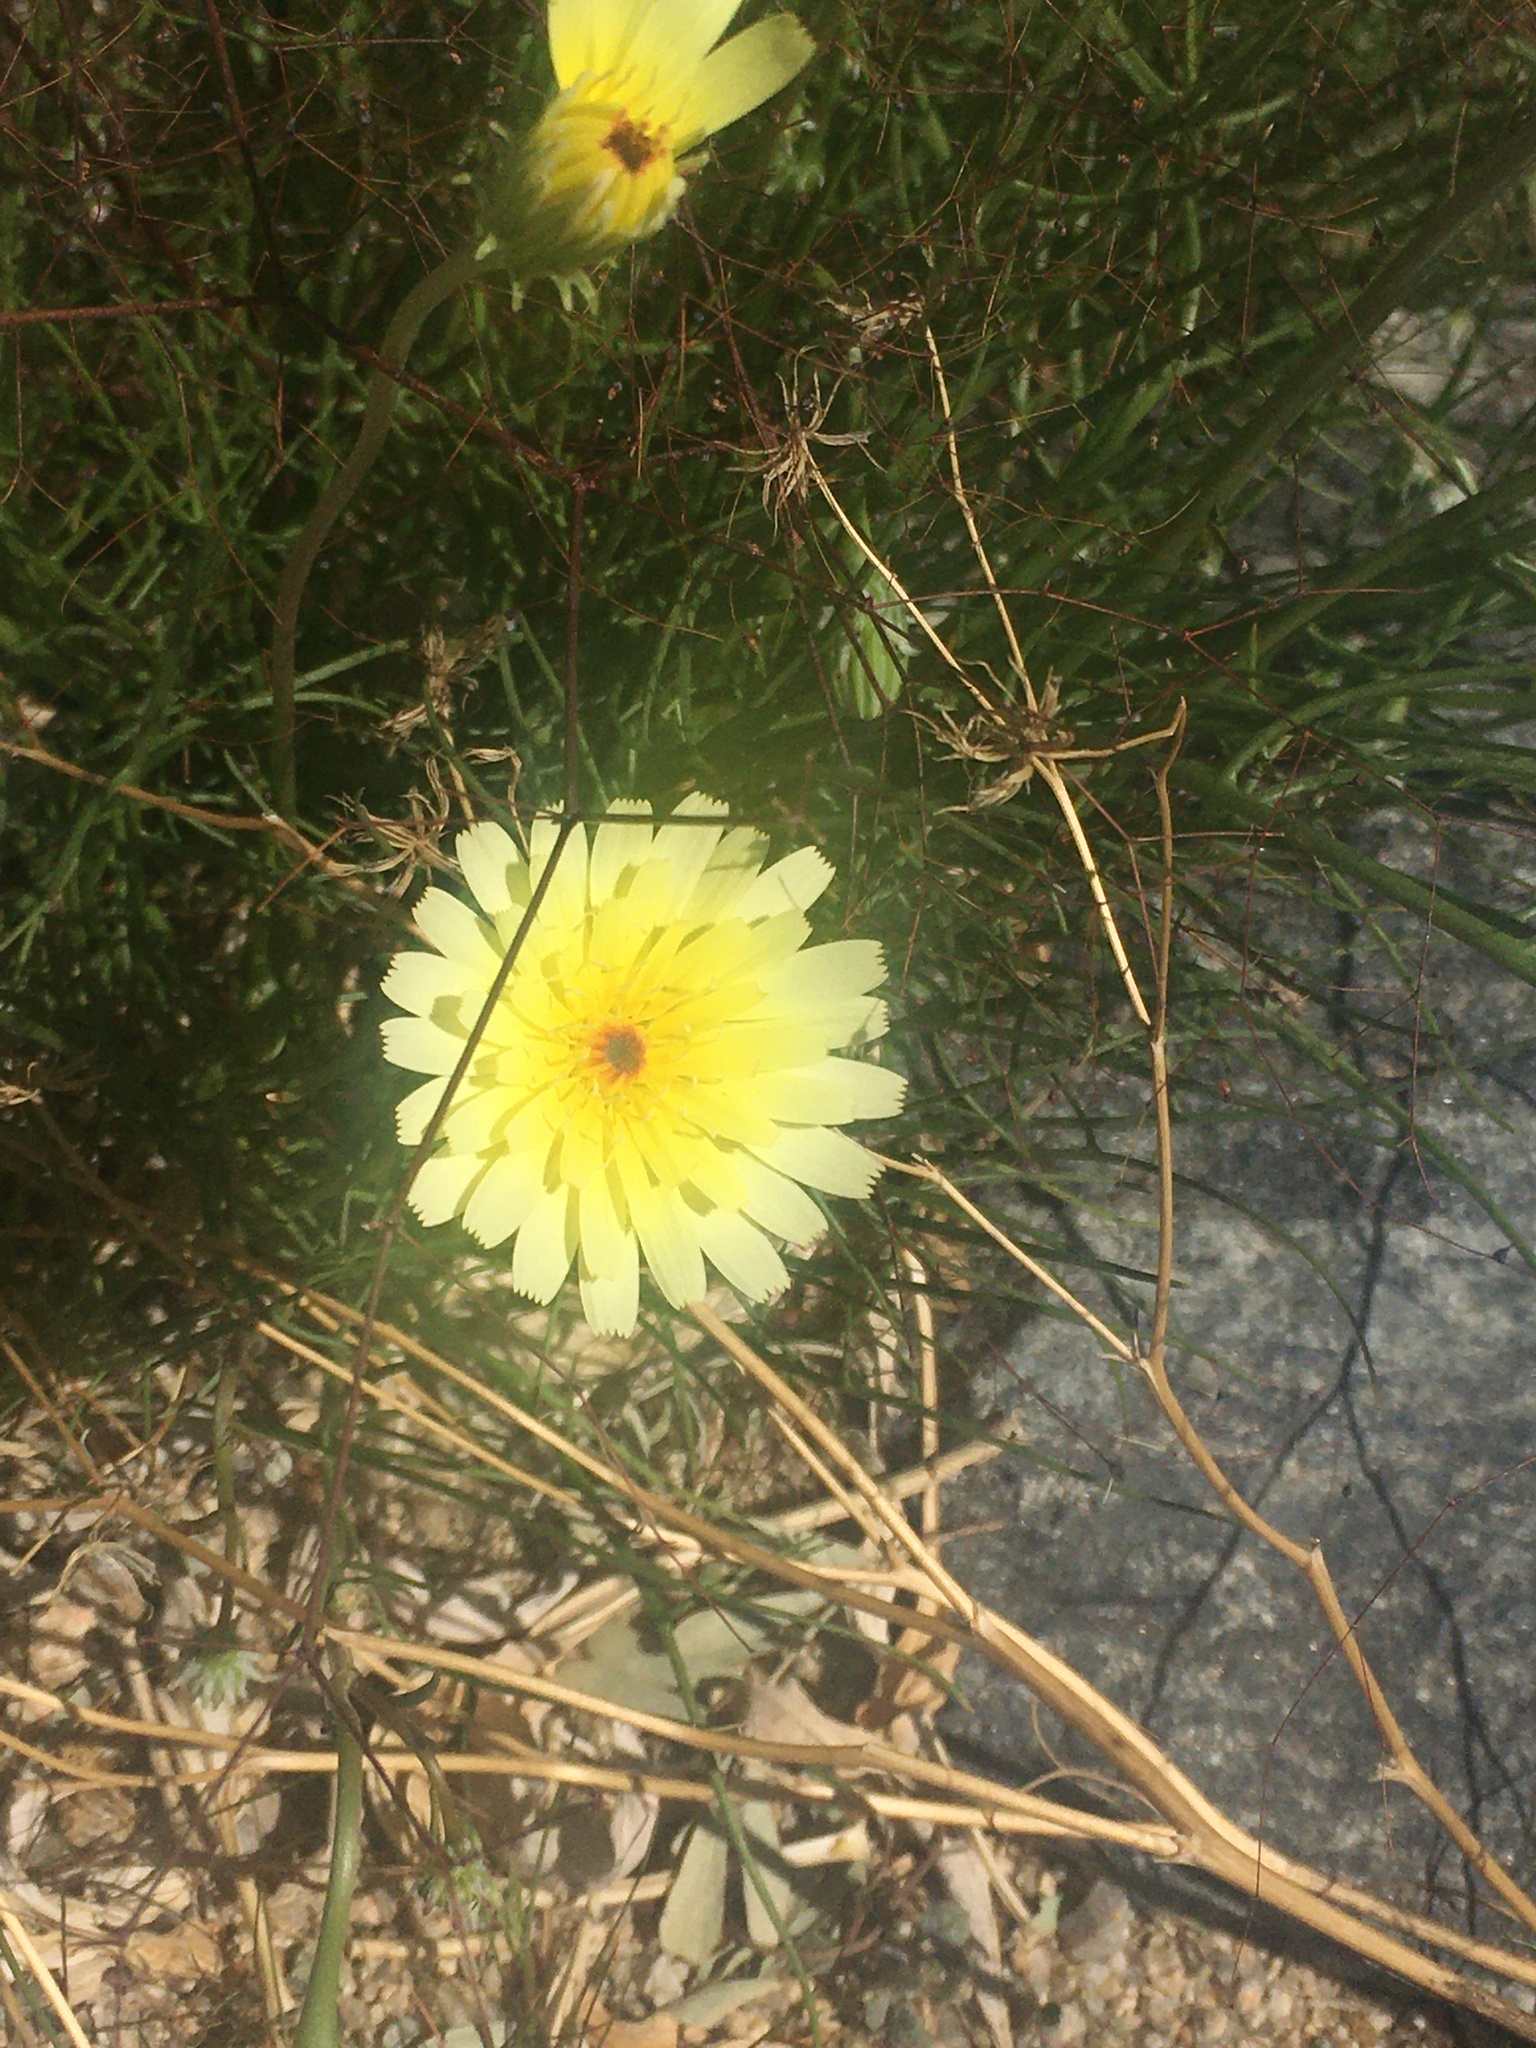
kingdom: Plantae
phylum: Tracheophyta
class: Magnoliopsida
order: Asterales
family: Asteraceae
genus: Malacothrix
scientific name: Malacothrix glabrata
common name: Smooth desert-dandelion
